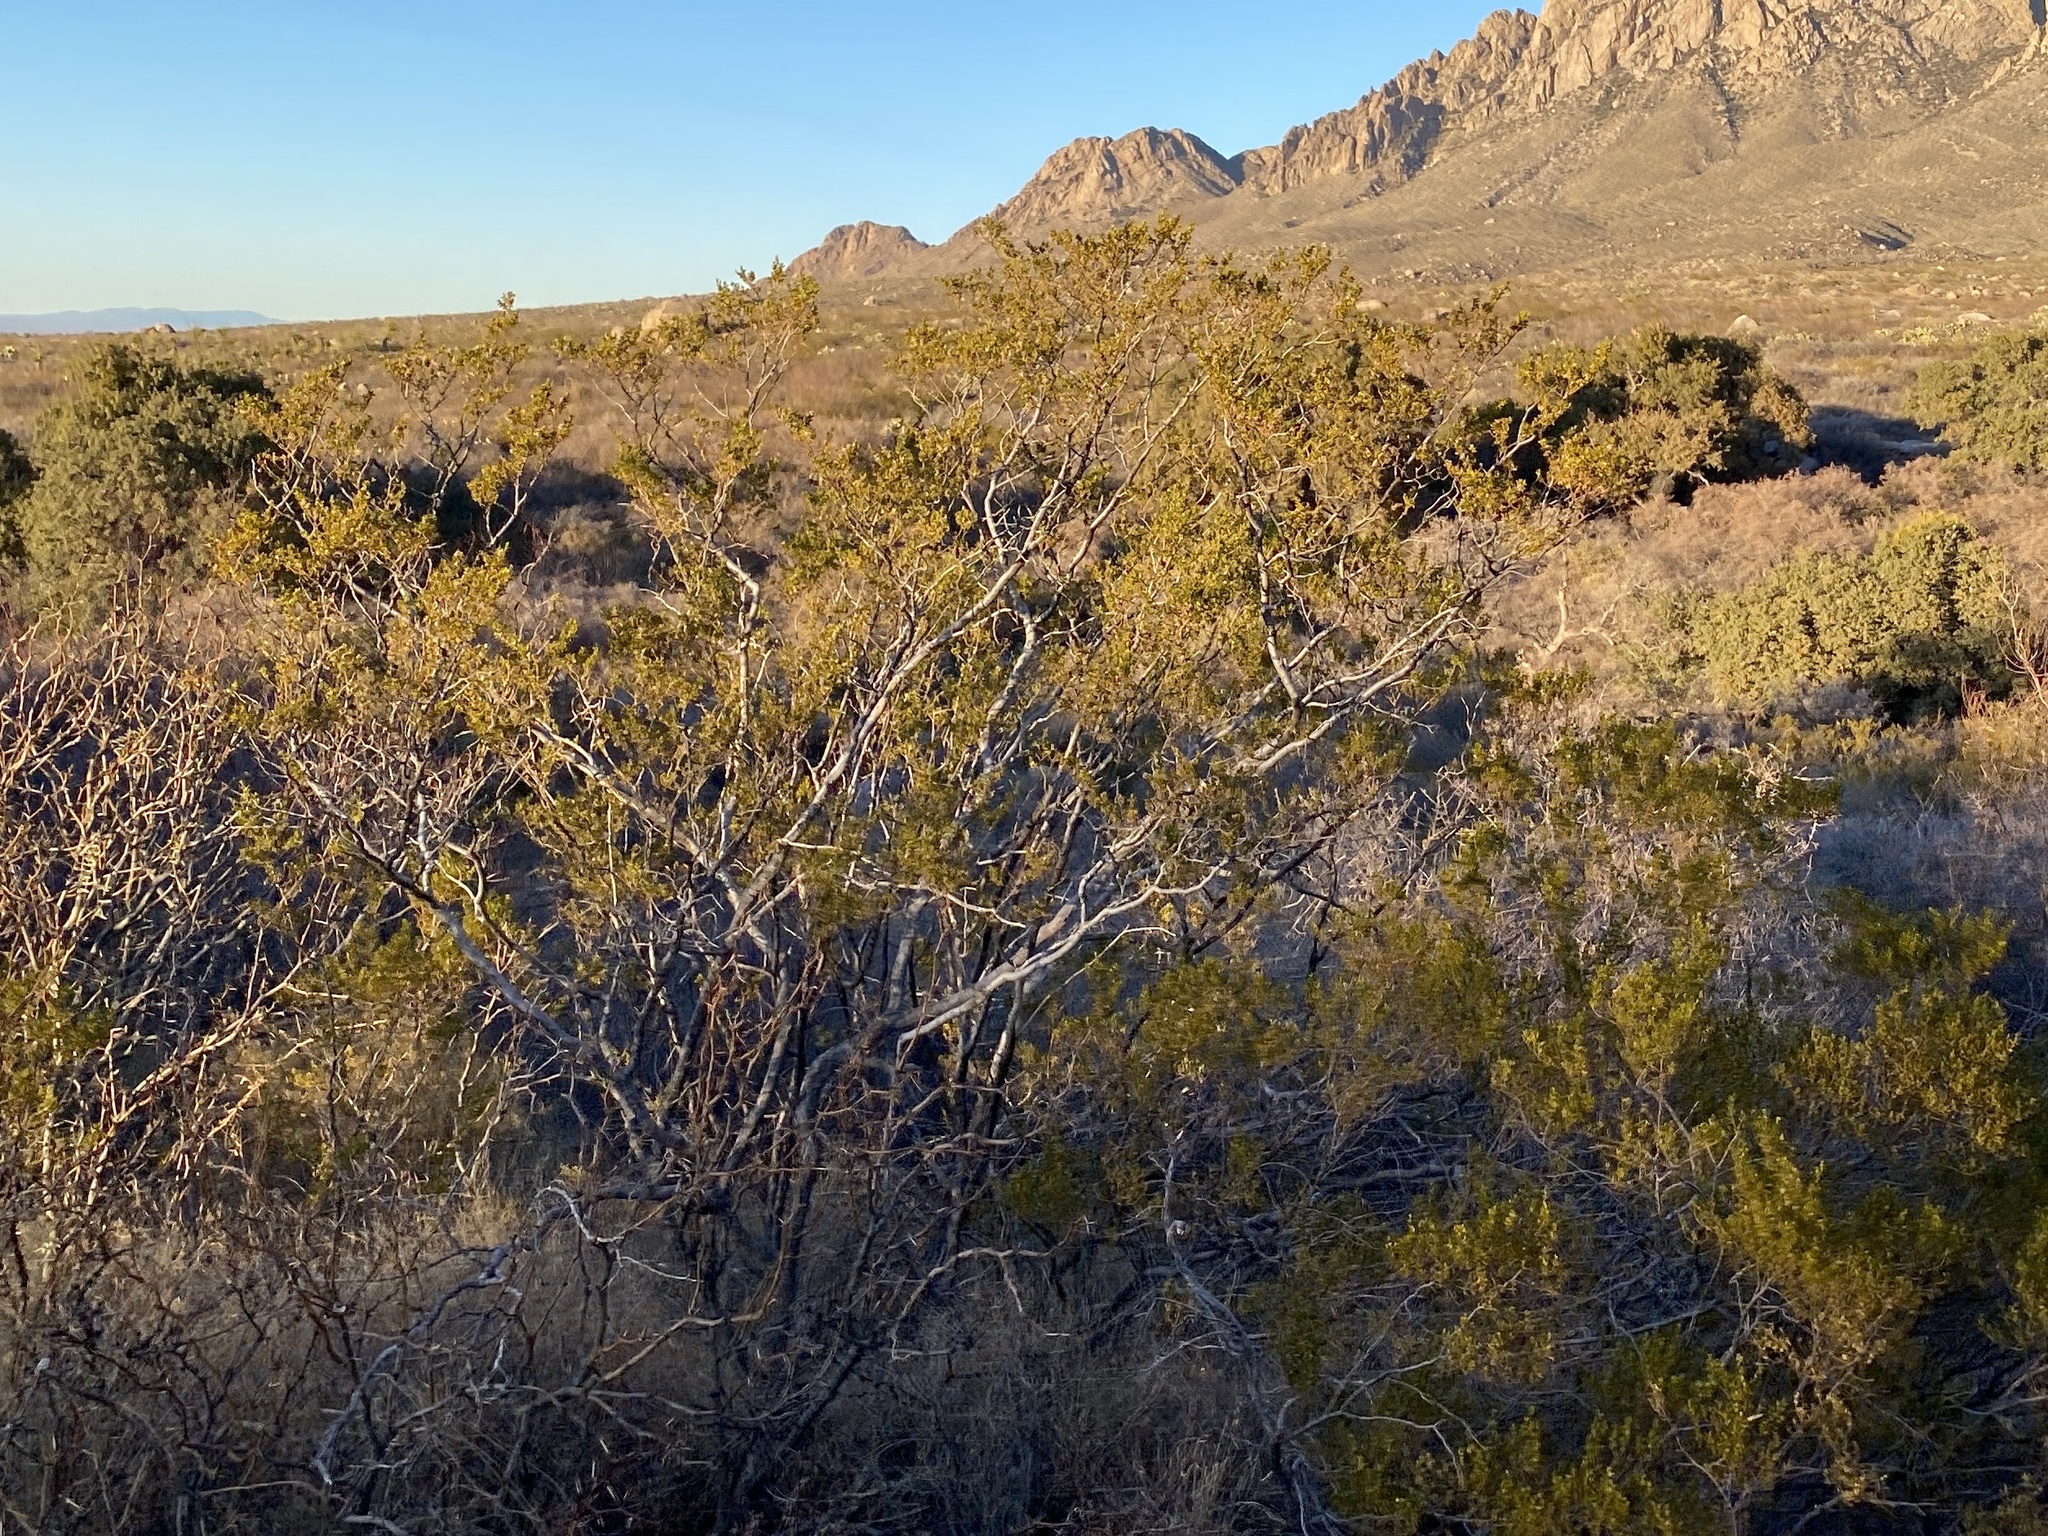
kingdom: Plantae
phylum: Tracheophyta
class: Magnoliopsida
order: Zygophyllales
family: Zygophyllaceae
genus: Larrea
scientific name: Larrea tridentata
